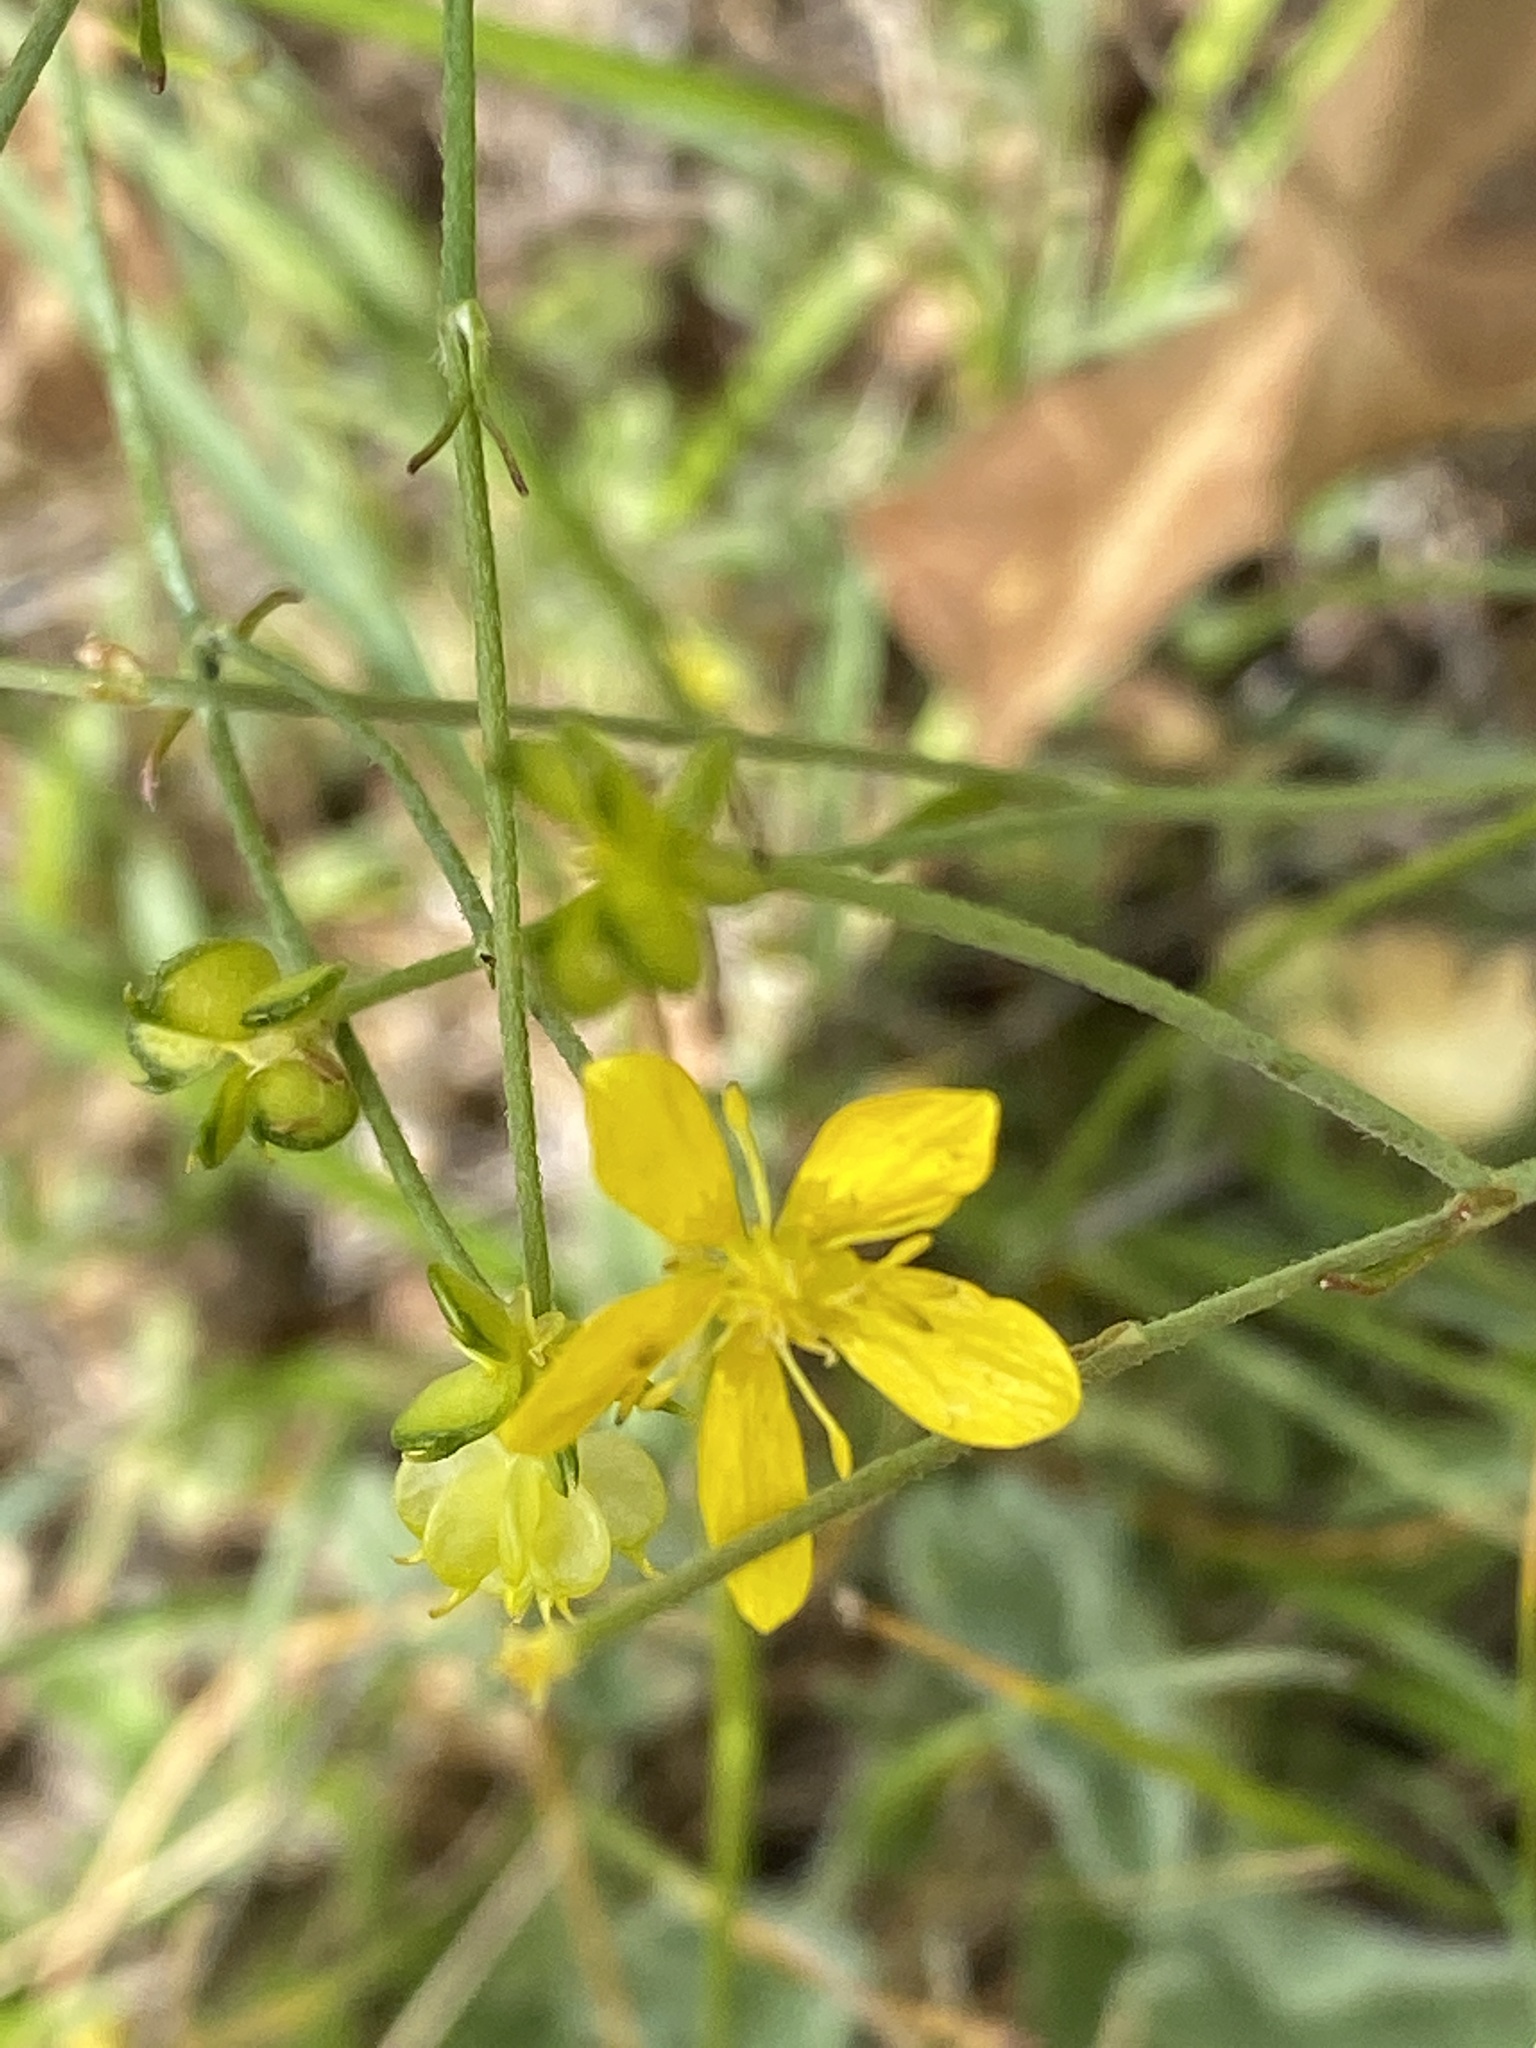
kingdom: Plantae
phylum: Tracheophyta
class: Magnoliopsida
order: Ranunculales
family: Ranunculaceae
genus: Ranunculus
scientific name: Ranunculus occidentalis
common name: Western buttercup
